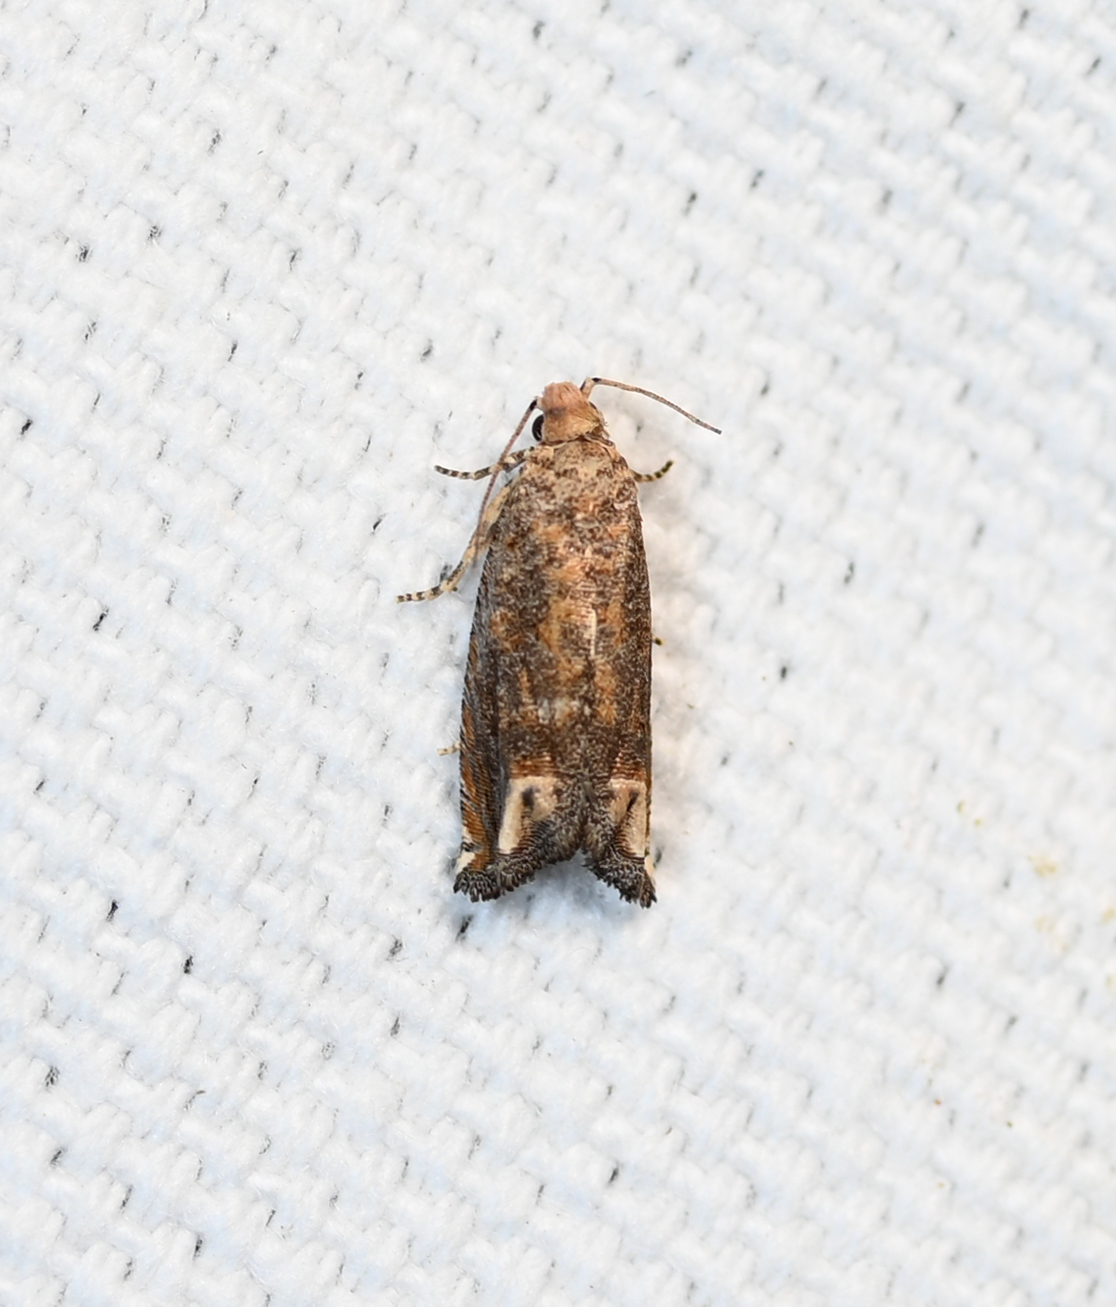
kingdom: Animalia
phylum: Arthropoda
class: Insecta
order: Lepidoptera
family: Tortricidae
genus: Epiblema
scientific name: Epiblema abruptana
